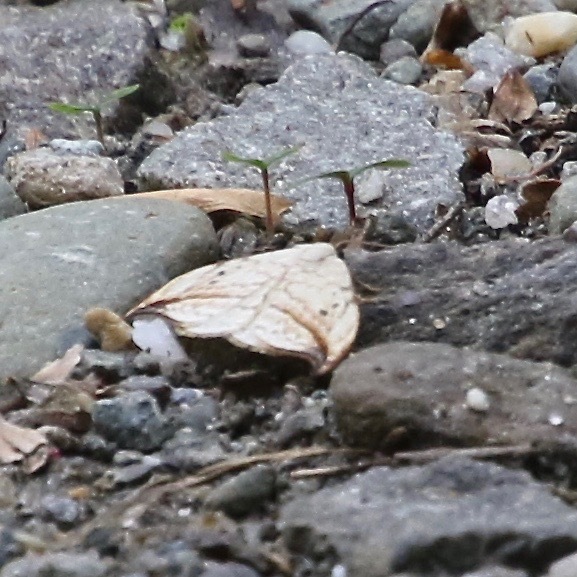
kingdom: Animalia
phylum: Arthropoda
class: Insecta
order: Lepidoptera
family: Drepanidae
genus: Drepana
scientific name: Drepana arcuata
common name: Arched hooktip moth
